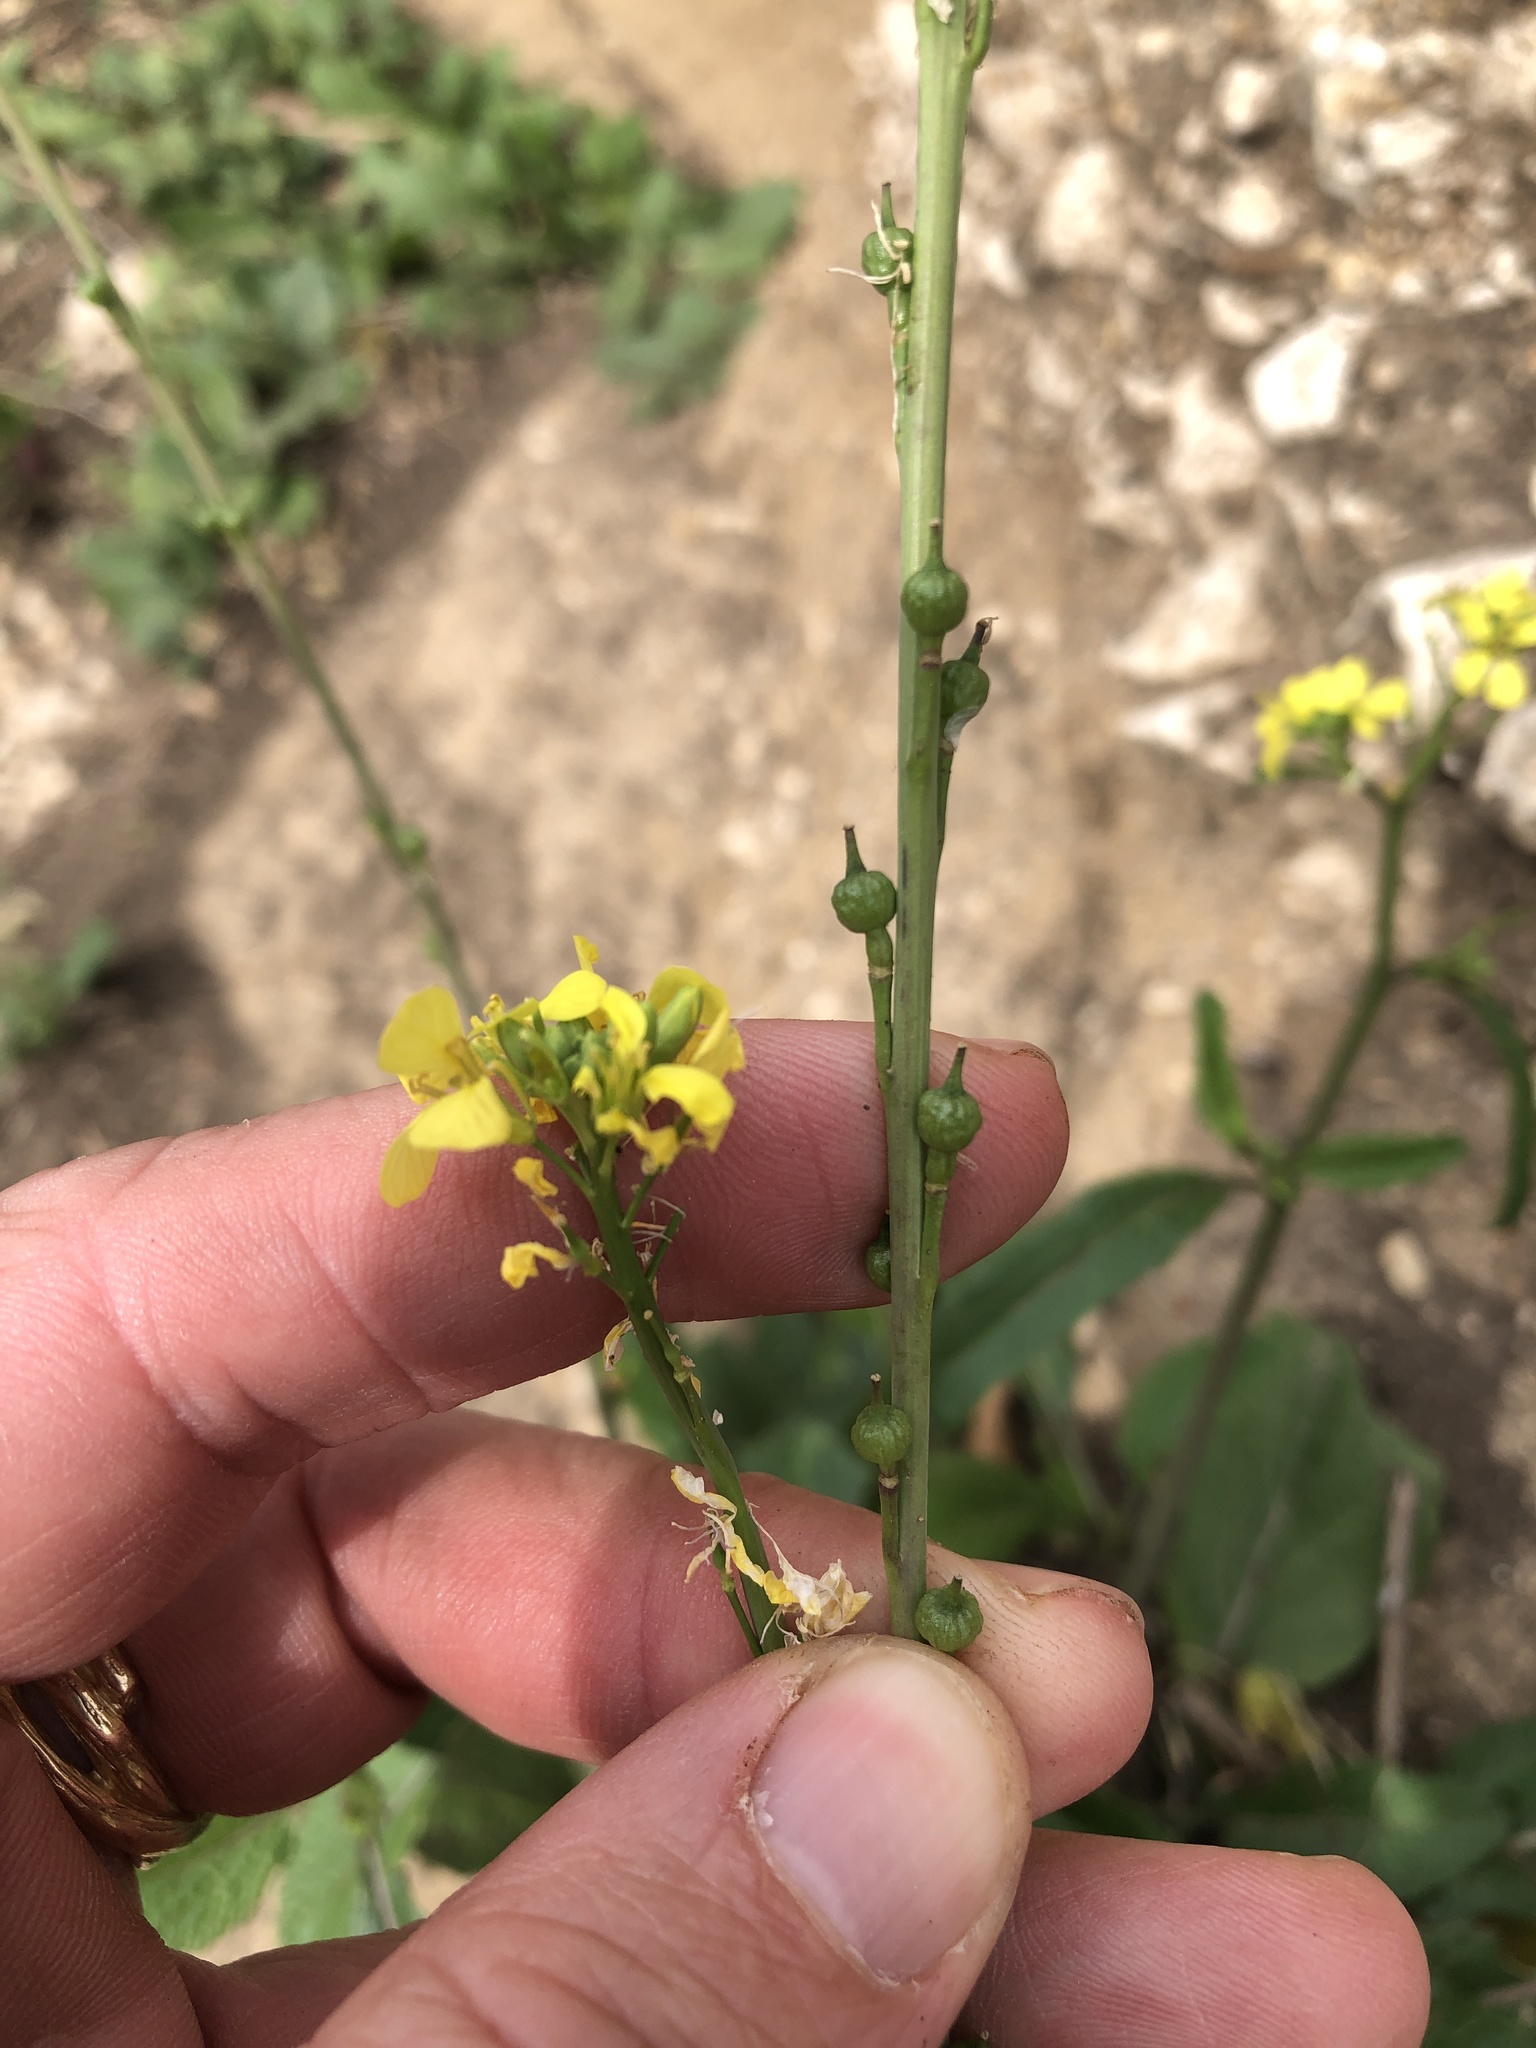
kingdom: Plantae
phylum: Tracheophyta
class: Magnoliopsida
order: Brassicales
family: Brassicaceae
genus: Rapistrum
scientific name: Rapistrum rugosum
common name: Annual bastardcabbage
